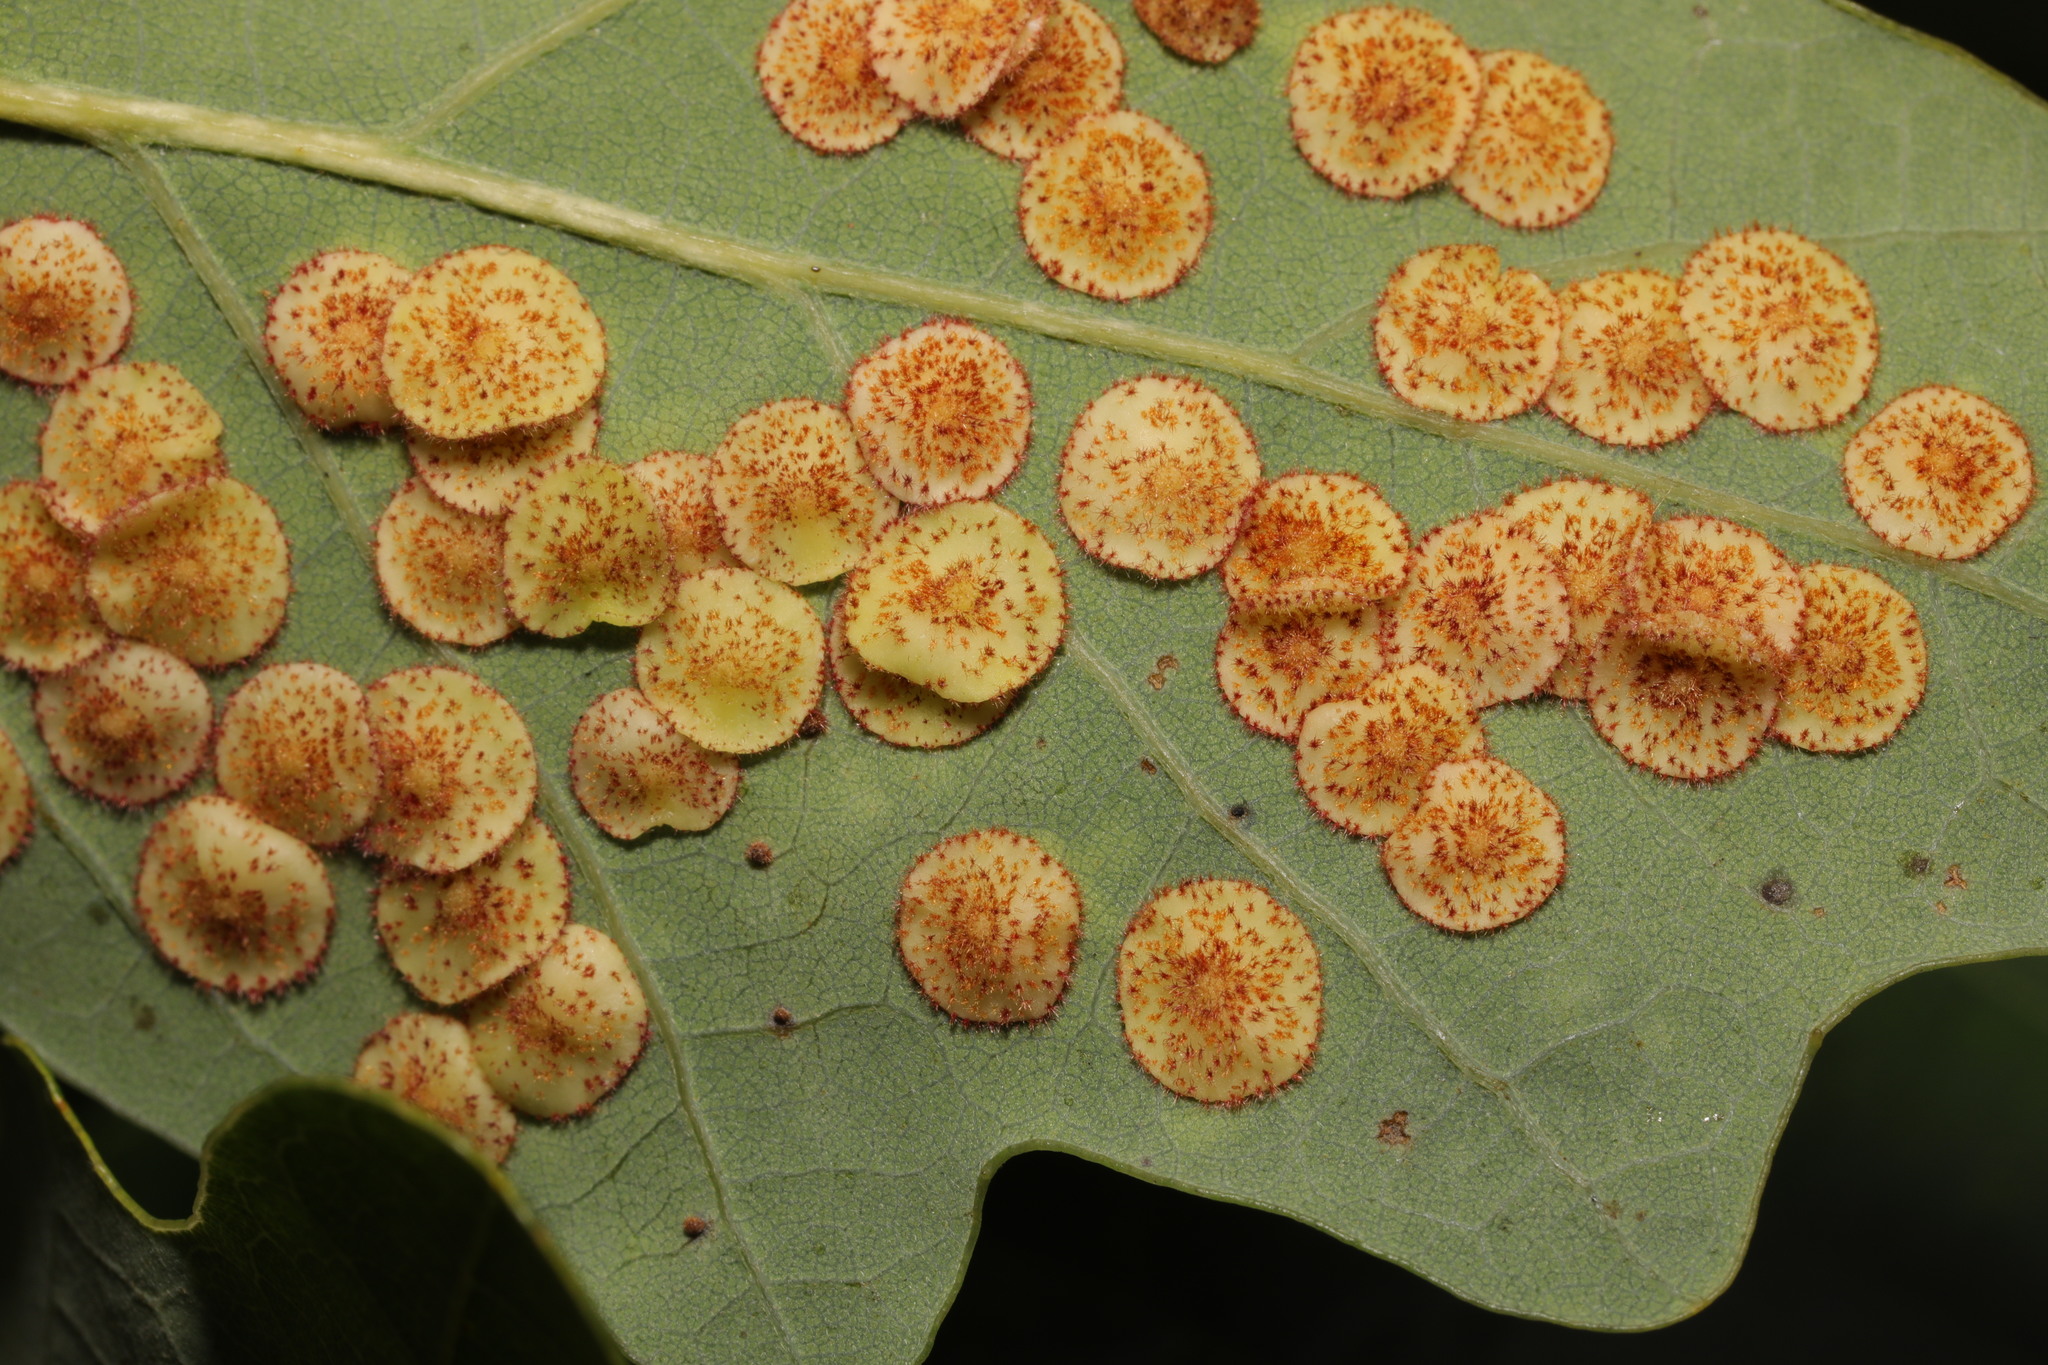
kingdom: Animalia
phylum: Arthropoda
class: Insecta
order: Hymenoptera
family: Cynipidae
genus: Neuroterus
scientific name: Neuroterus quercusbaccarum
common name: Common spangle gall
